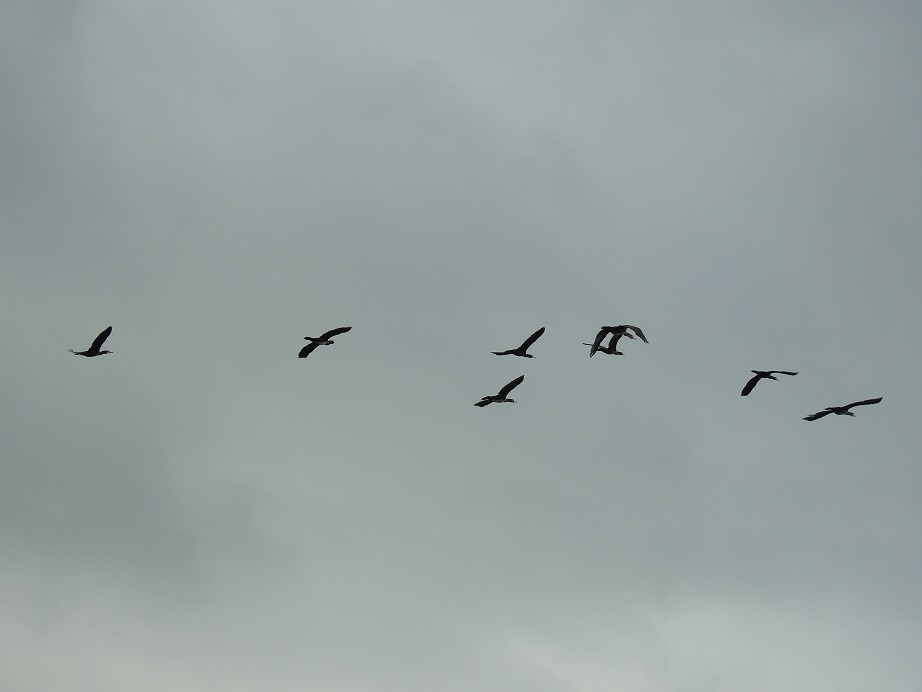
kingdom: Animalia
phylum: Chordata
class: Aves
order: Suliformes
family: Phalacrocoracidae
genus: Phalacrocorax
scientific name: Phalacrocorax carbo
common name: Great cormorant
